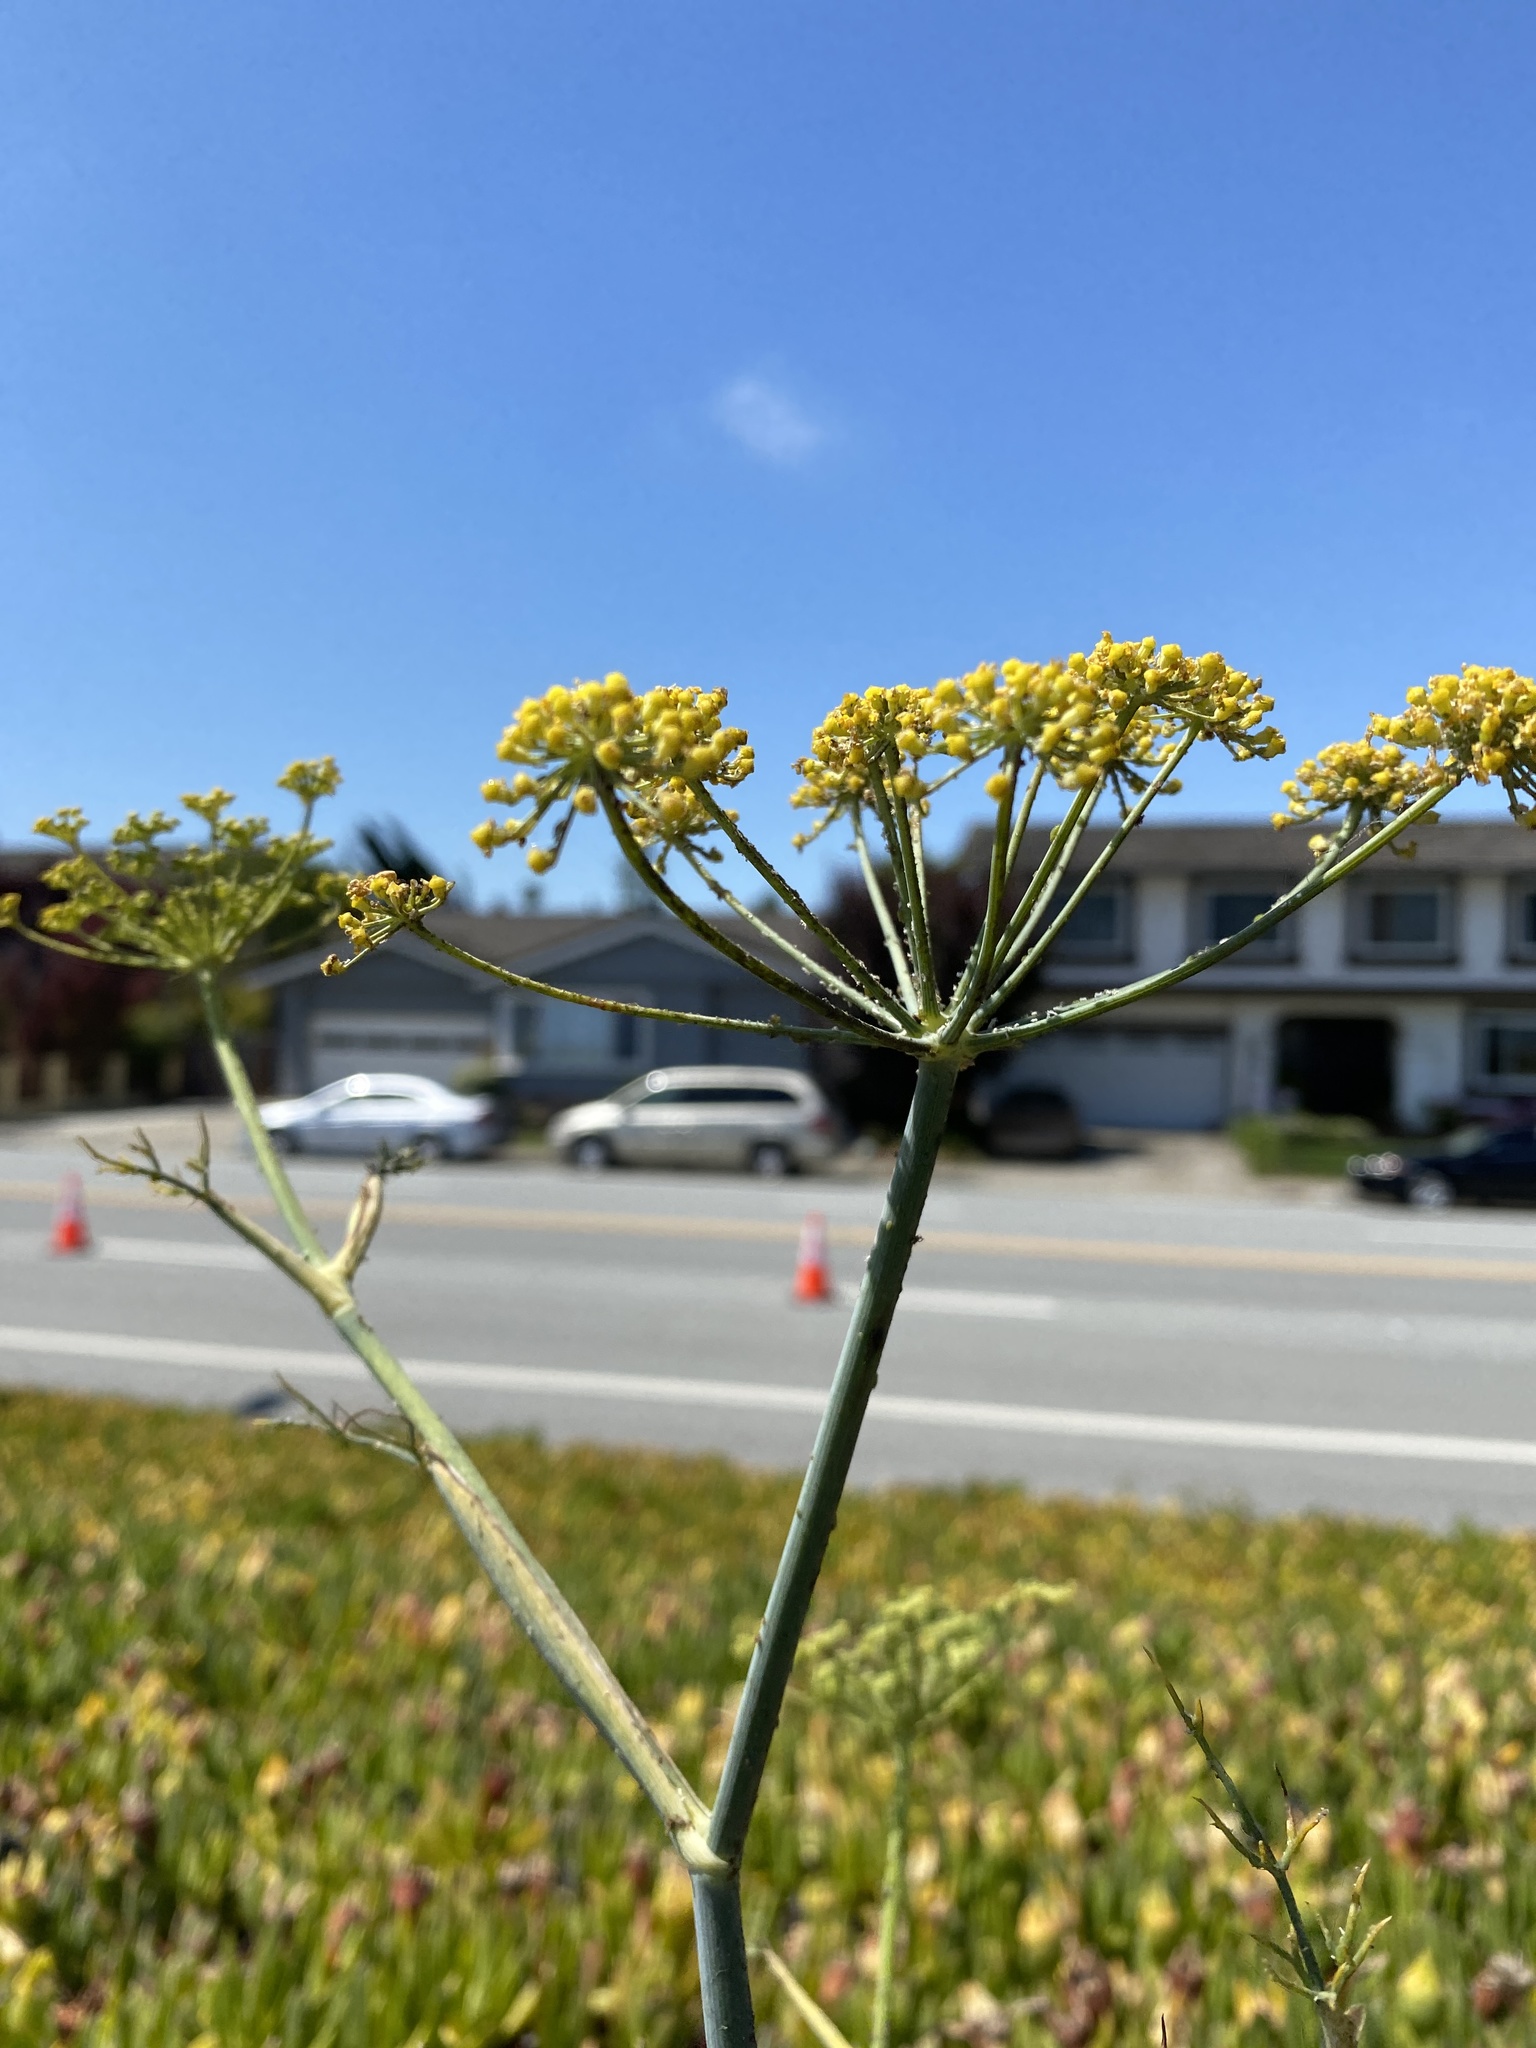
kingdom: Plantae
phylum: Tracheophyta
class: Magnoliopsida
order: Apiales
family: Apiaceae
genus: Foeniculum
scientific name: Foeniculum vulgare
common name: Fennel
